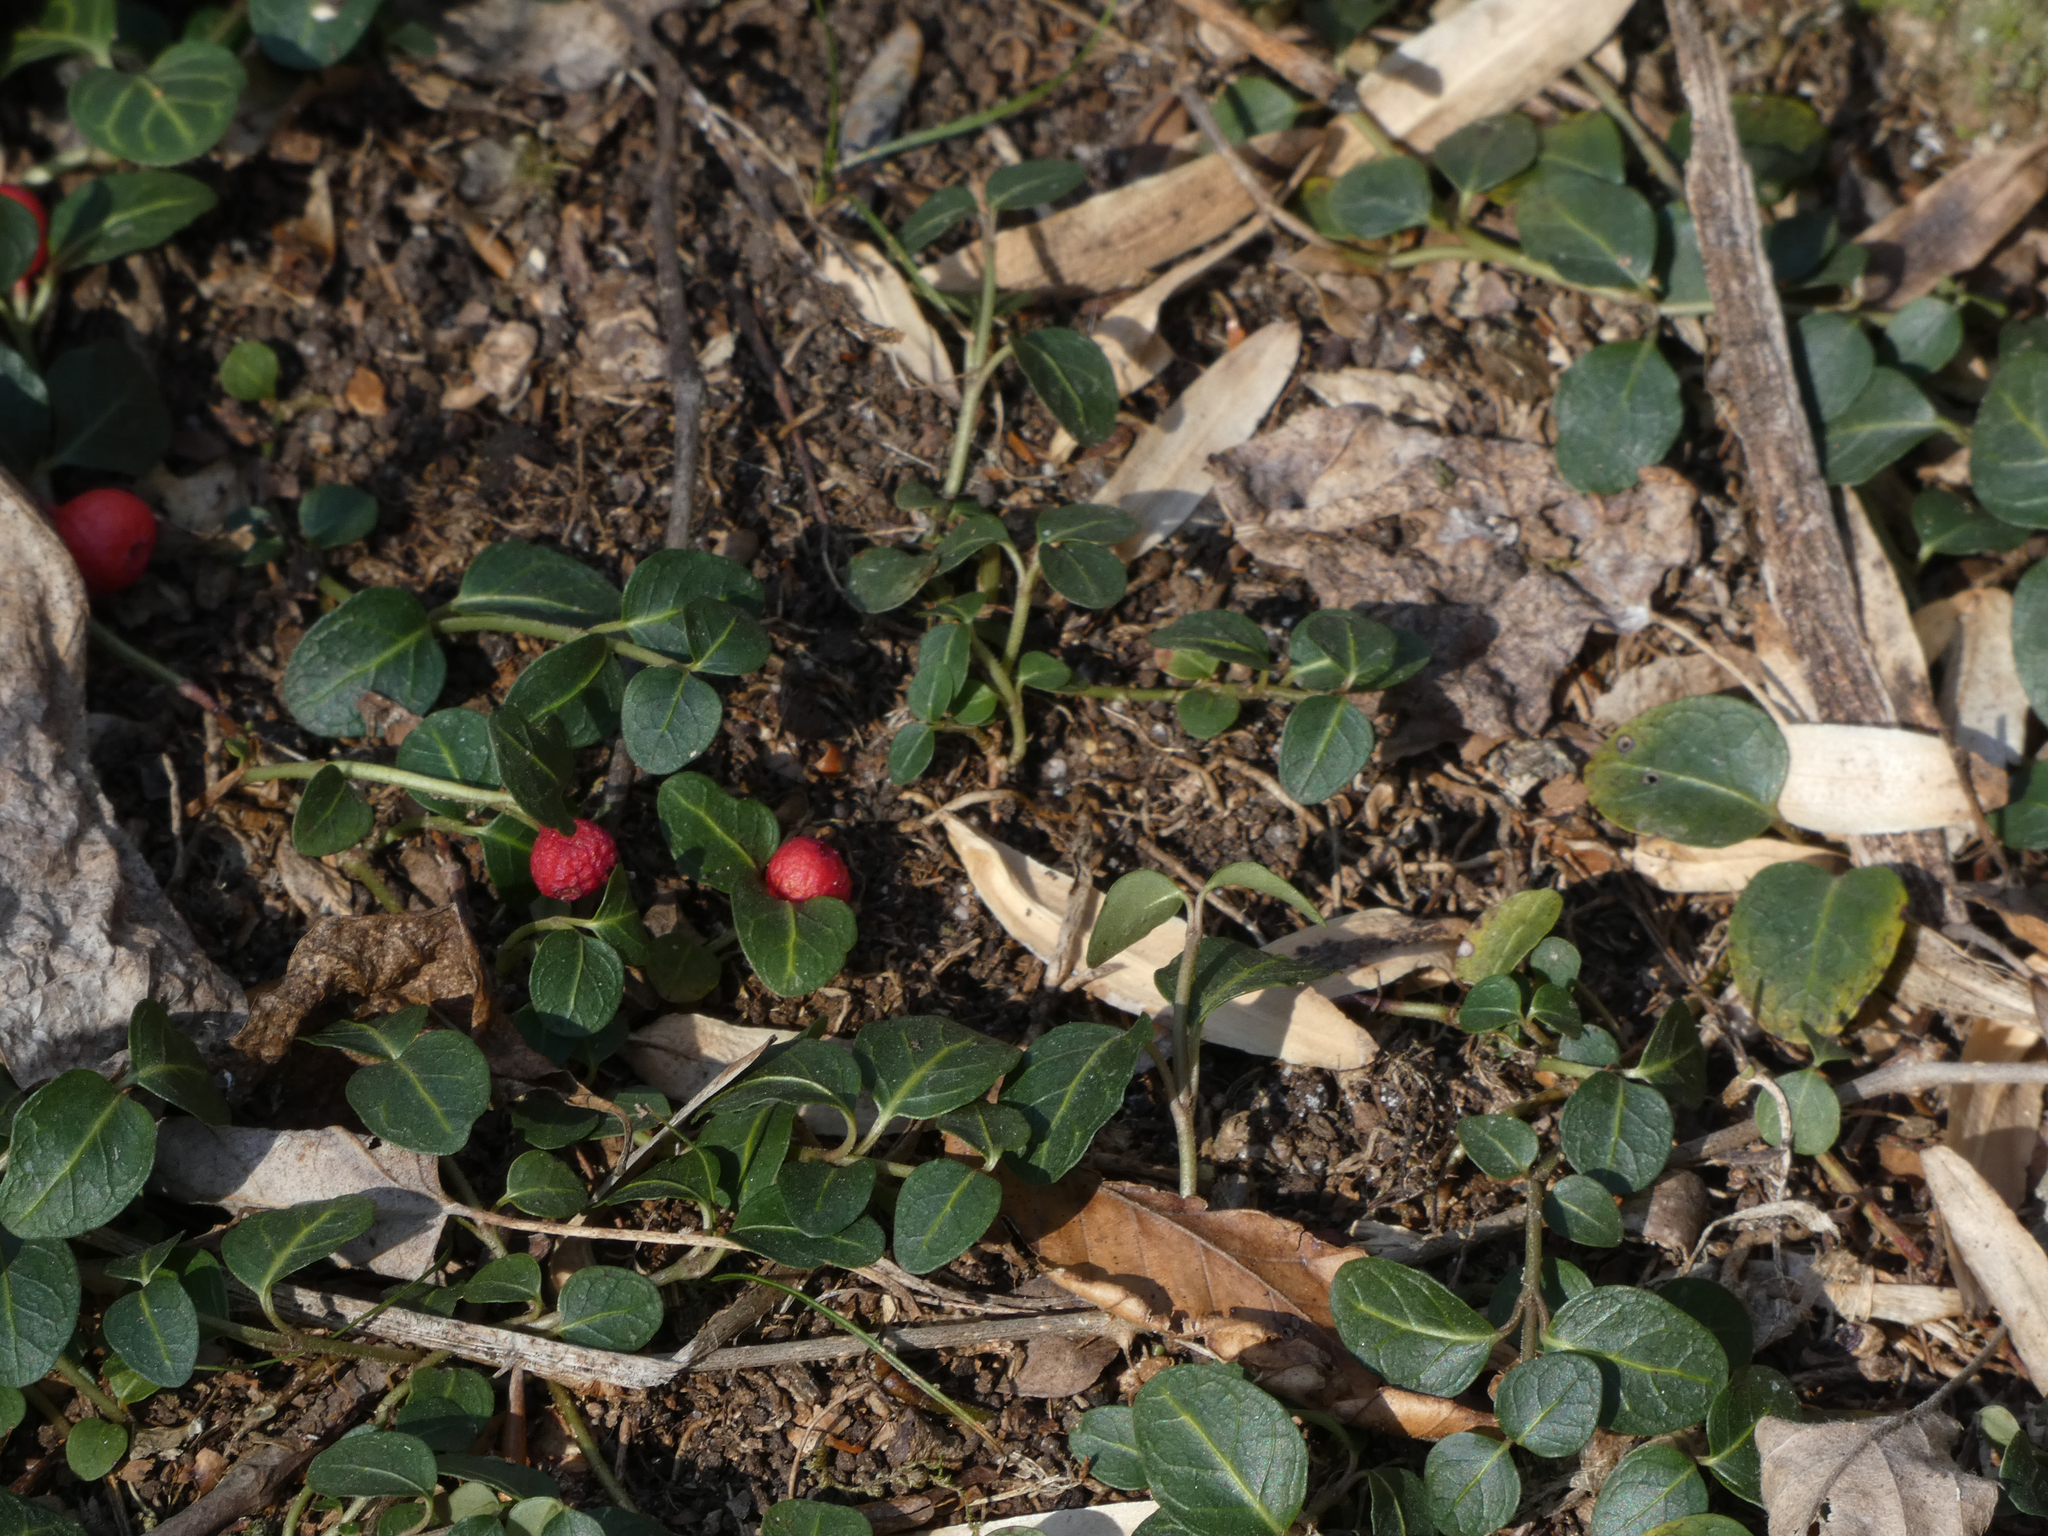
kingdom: Plantae
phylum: Tracheophyta
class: Magnoliopsida
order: Gentianales
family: Rubiaceae
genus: Mitchella
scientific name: Mitchella repens
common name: Partridge-berry
